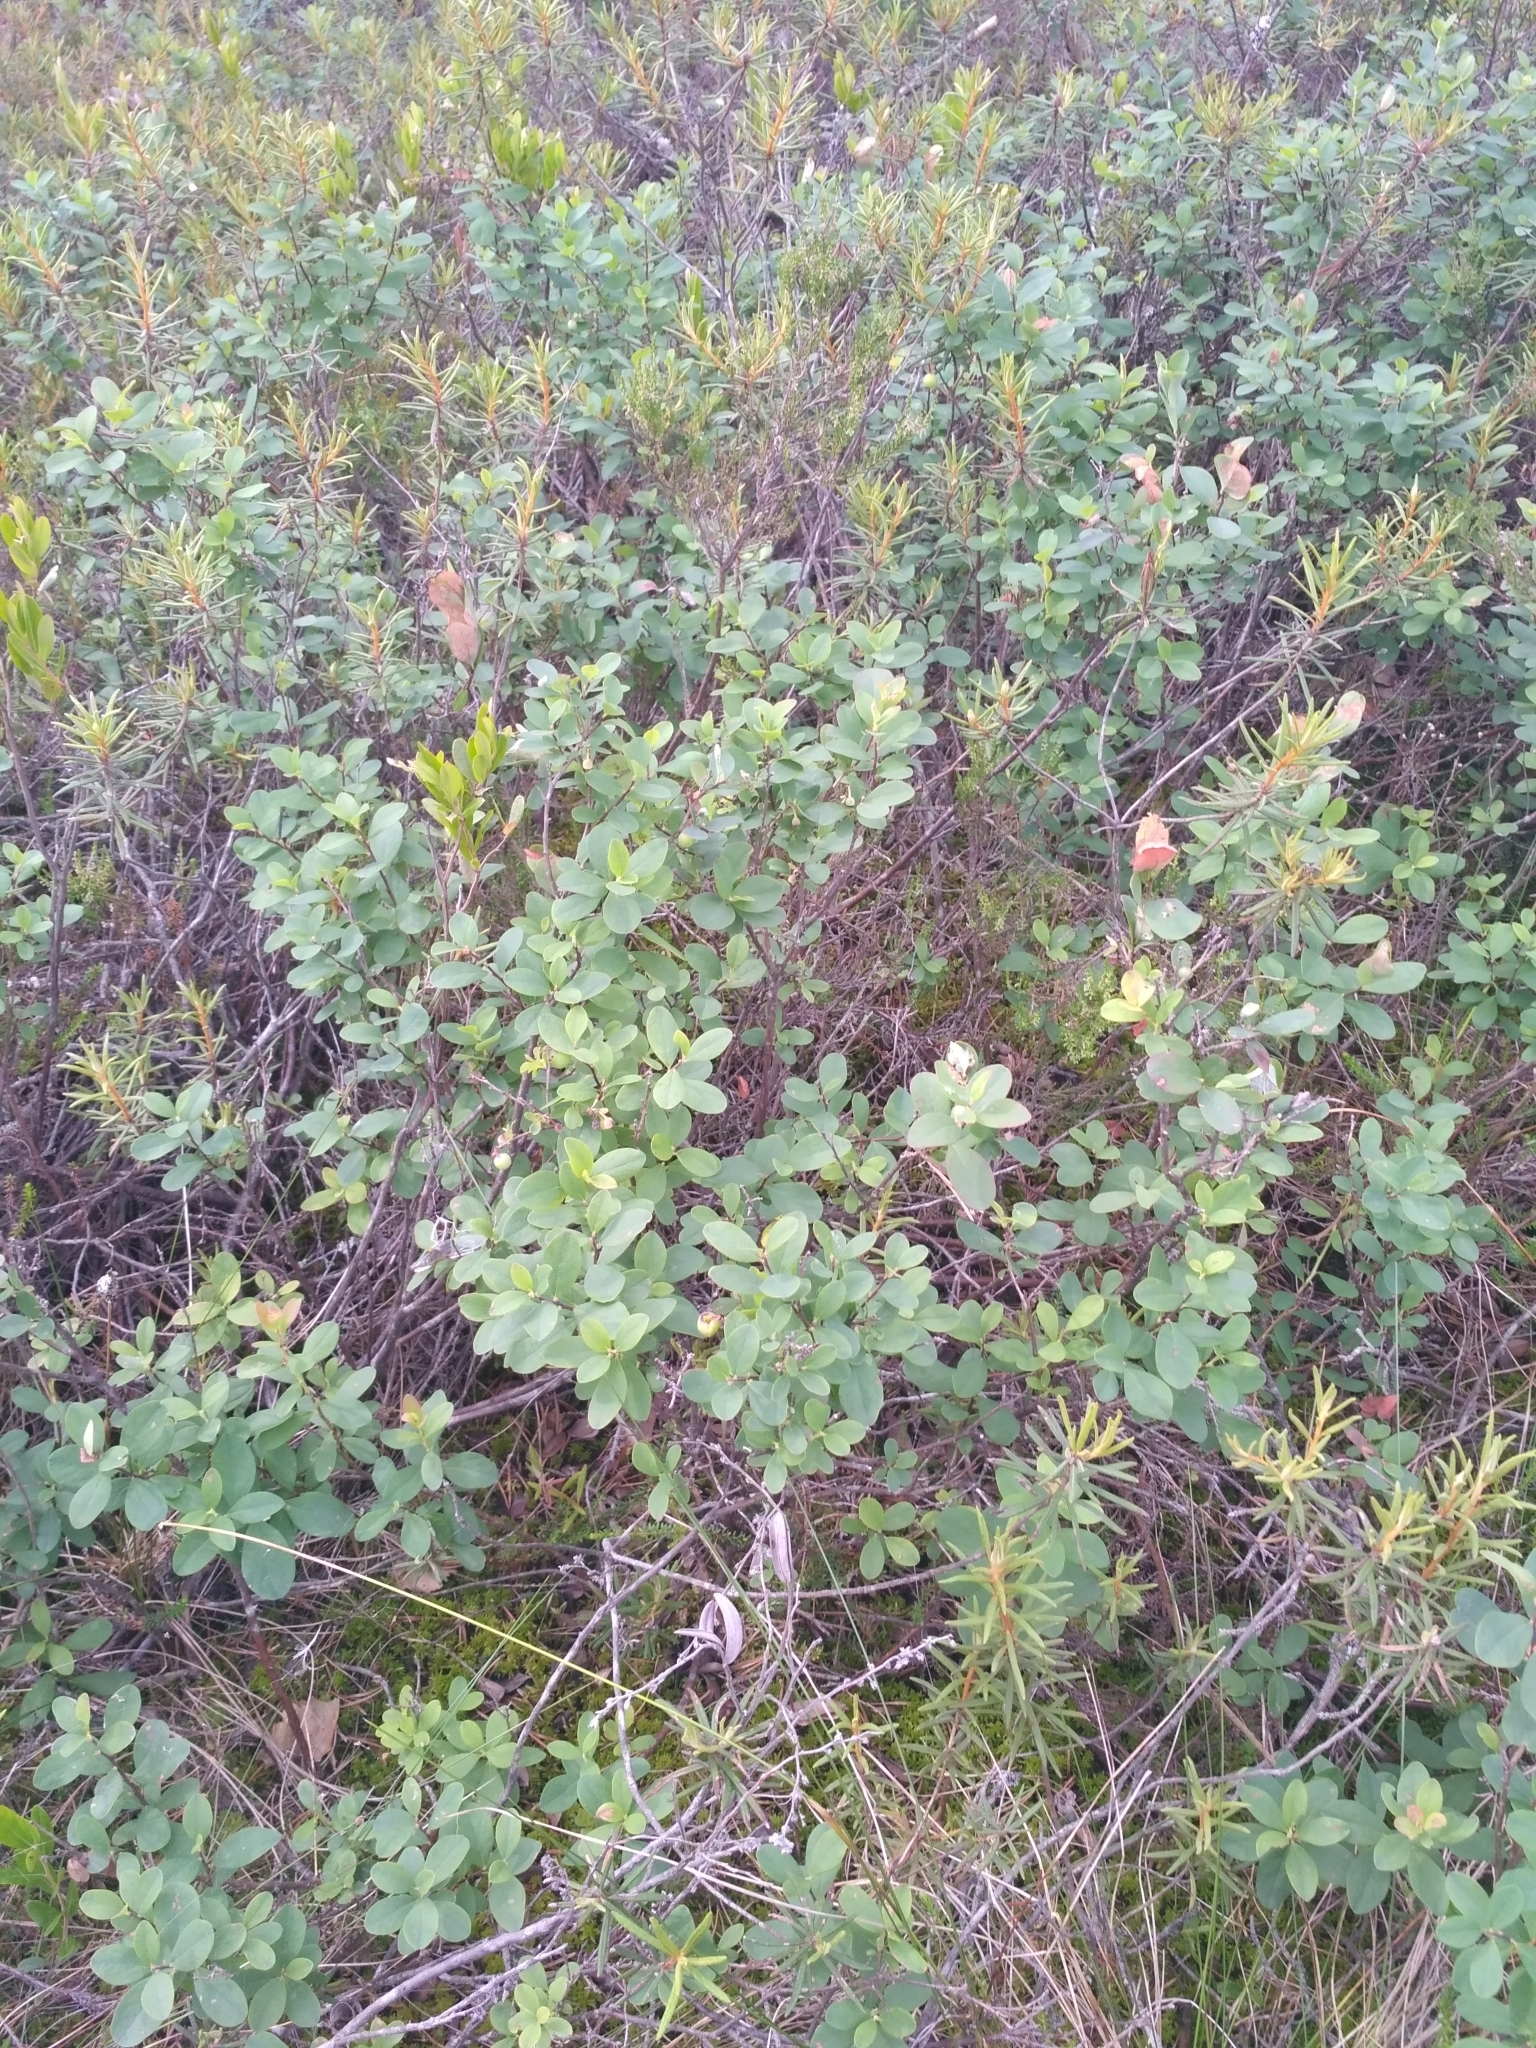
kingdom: Plantae
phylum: Tracheophyta
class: Magnoliopsida
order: Ericales
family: Ericaceae
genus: Vaccinium
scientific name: Vaccinium uliginosum
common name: Bog bilberry
